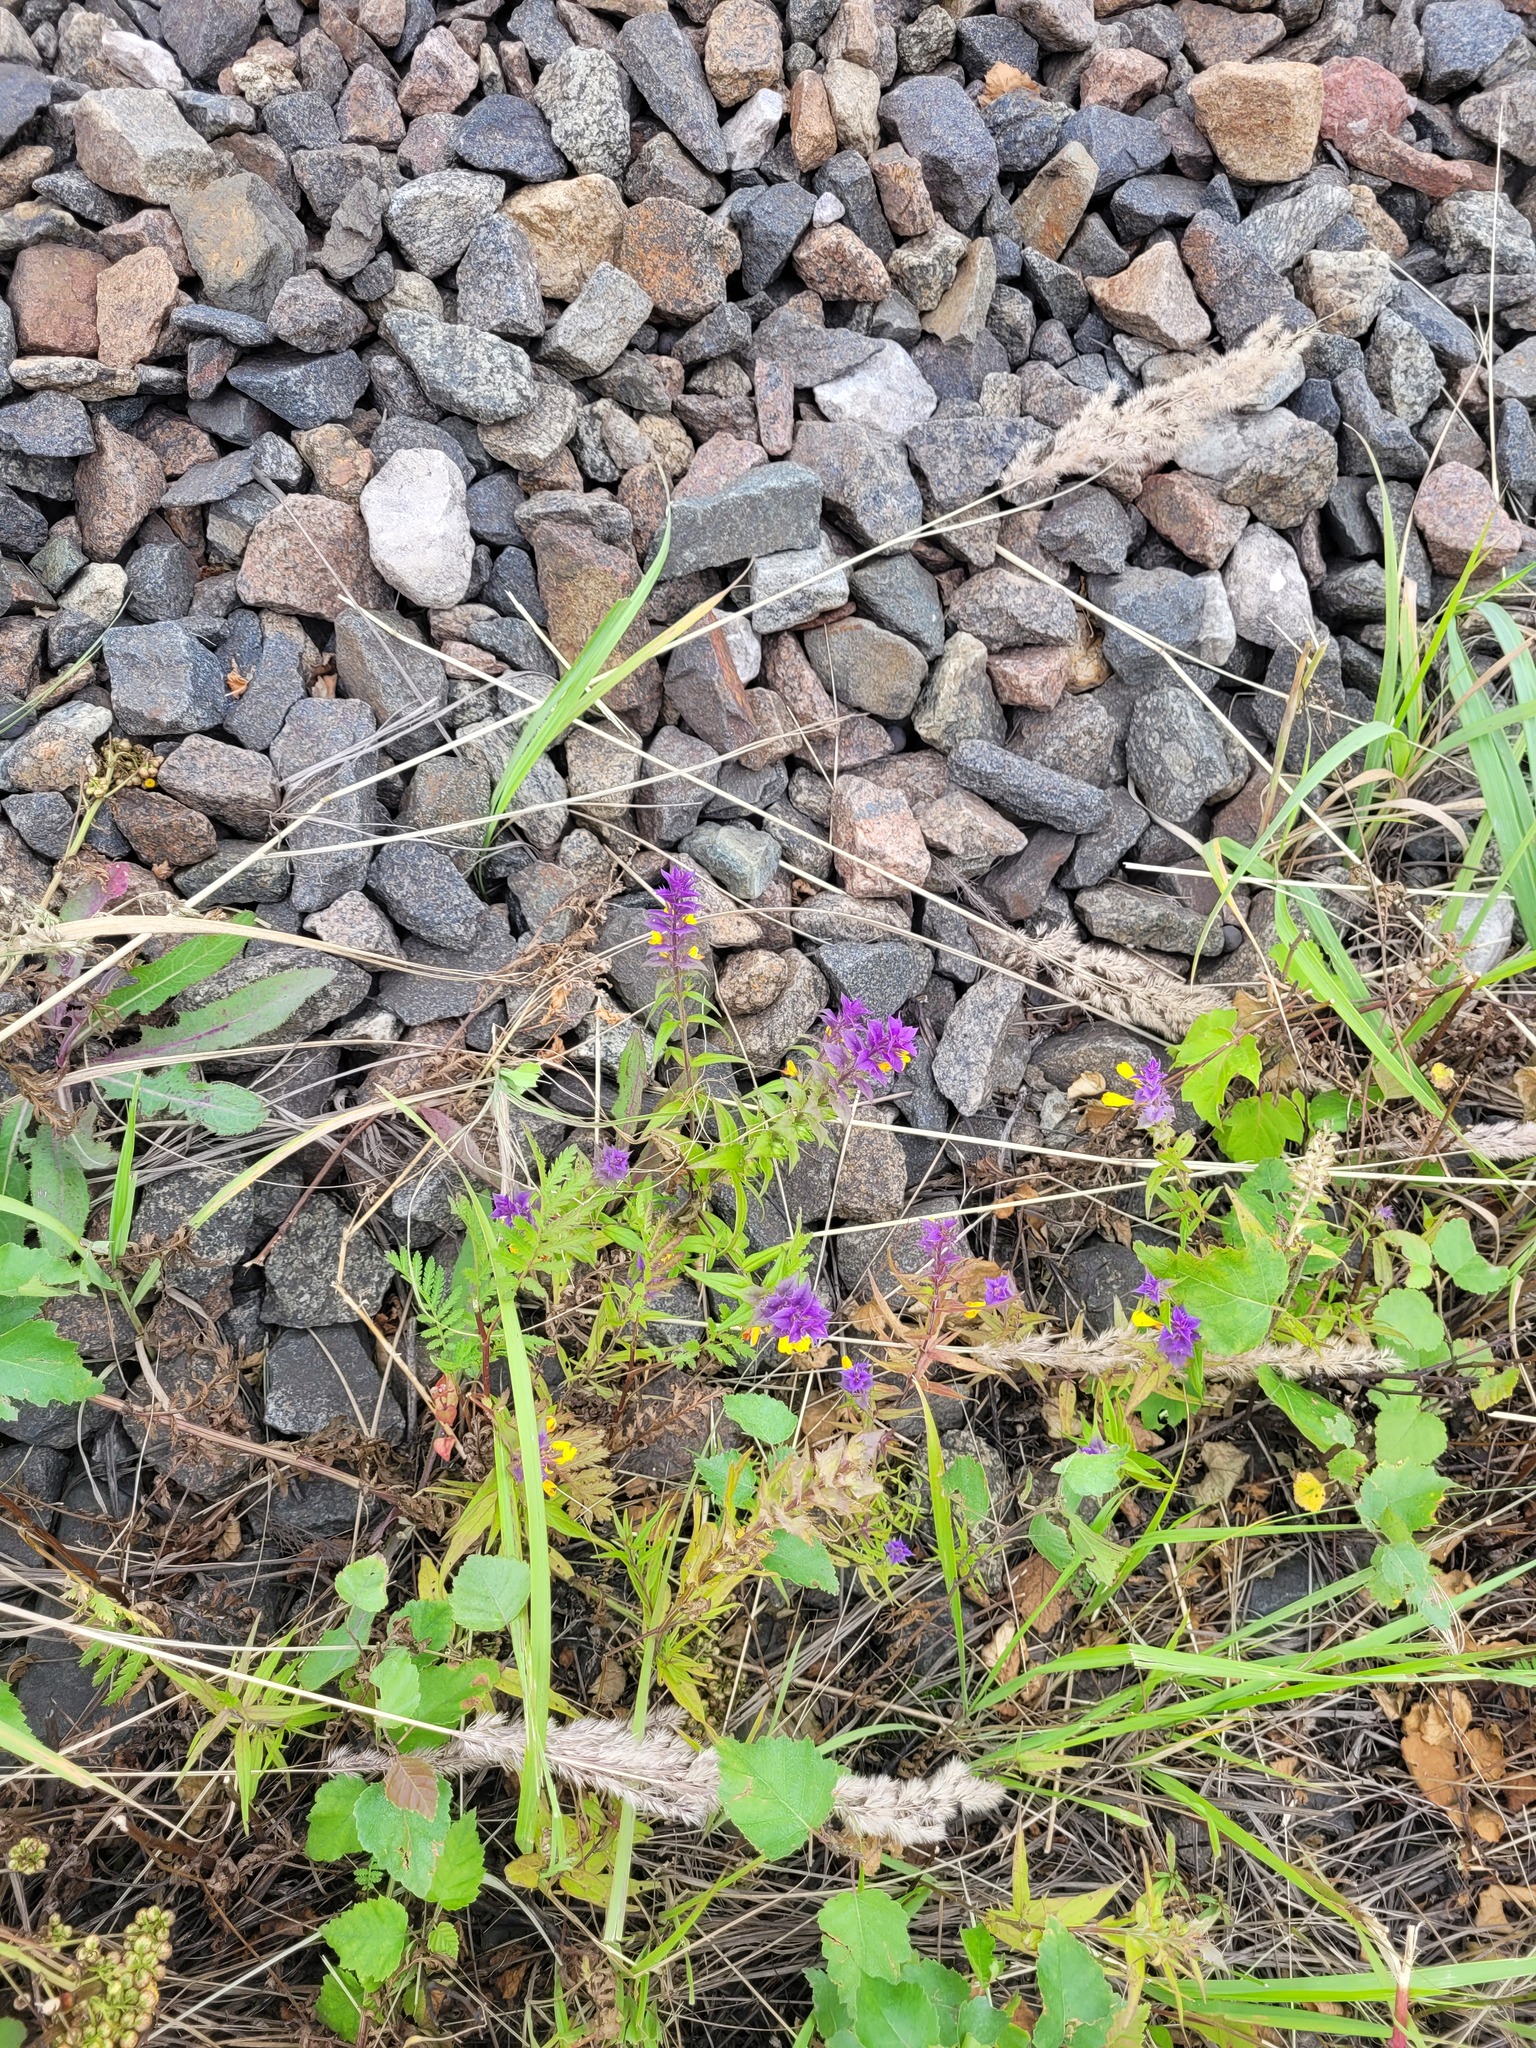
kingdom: Plantae
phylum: Tracheophyta
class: Magnoliopsida
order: Lamiales
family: Orobanchaceae
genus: Melampyrum
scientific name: Melampyrum nemorosum
